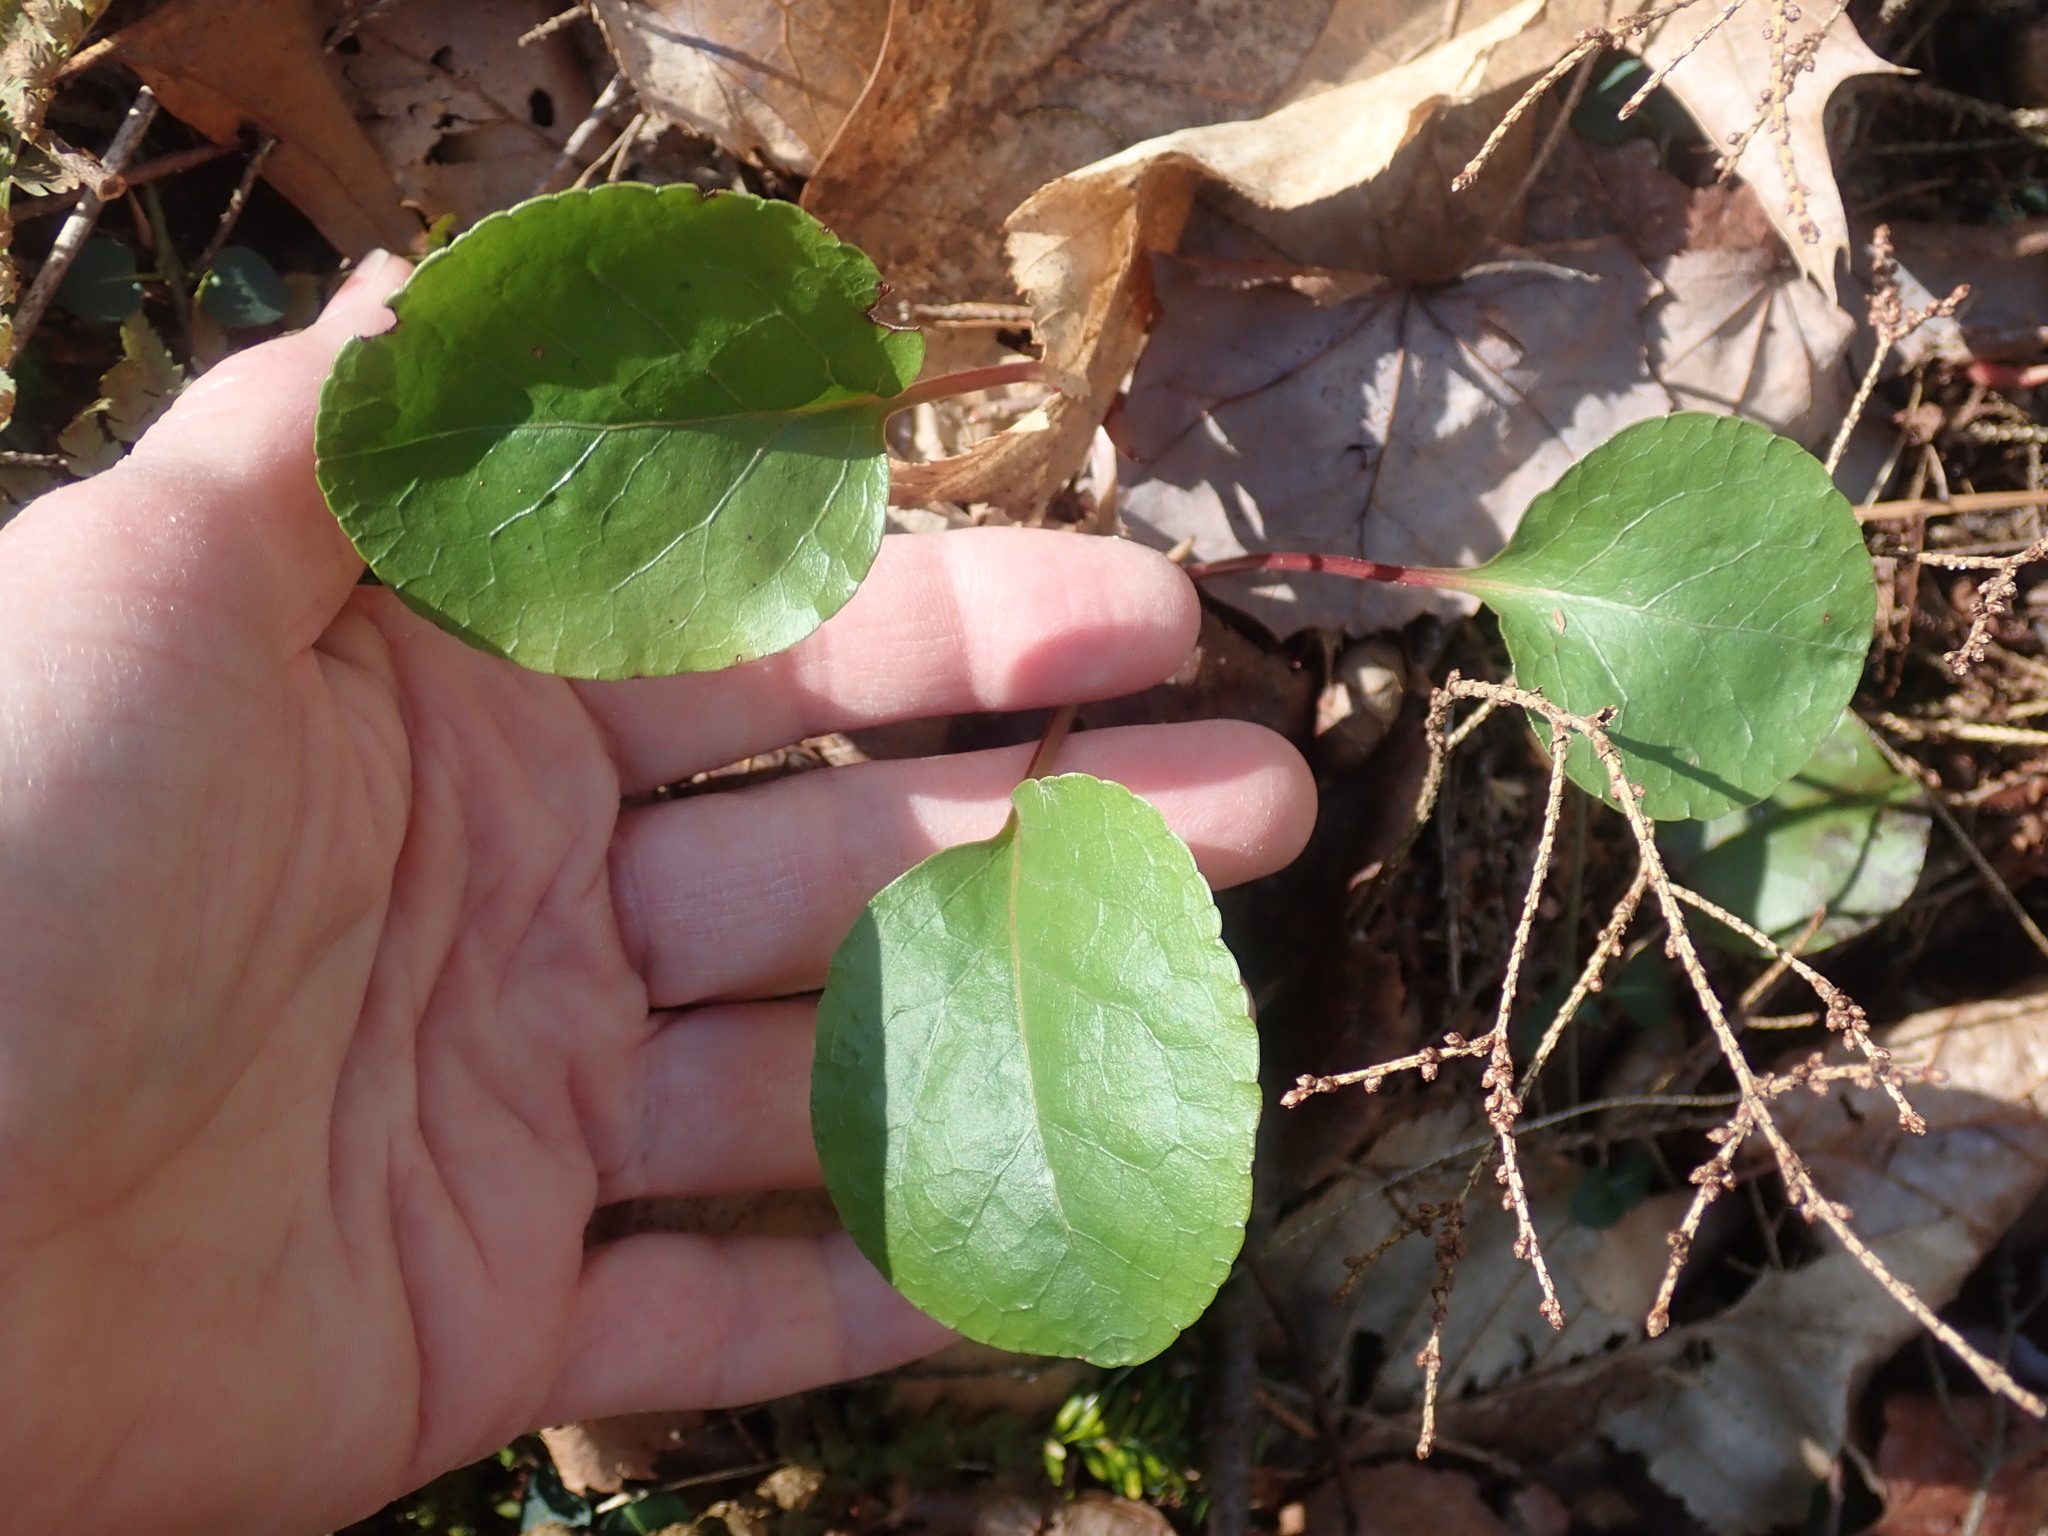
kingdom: Plantae
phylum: Tracheophyta
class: Magnoliopsida
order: Ericales
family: Ericaceae
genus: Pyrola
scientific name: Pyrola elliptica
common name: Shinleaf
